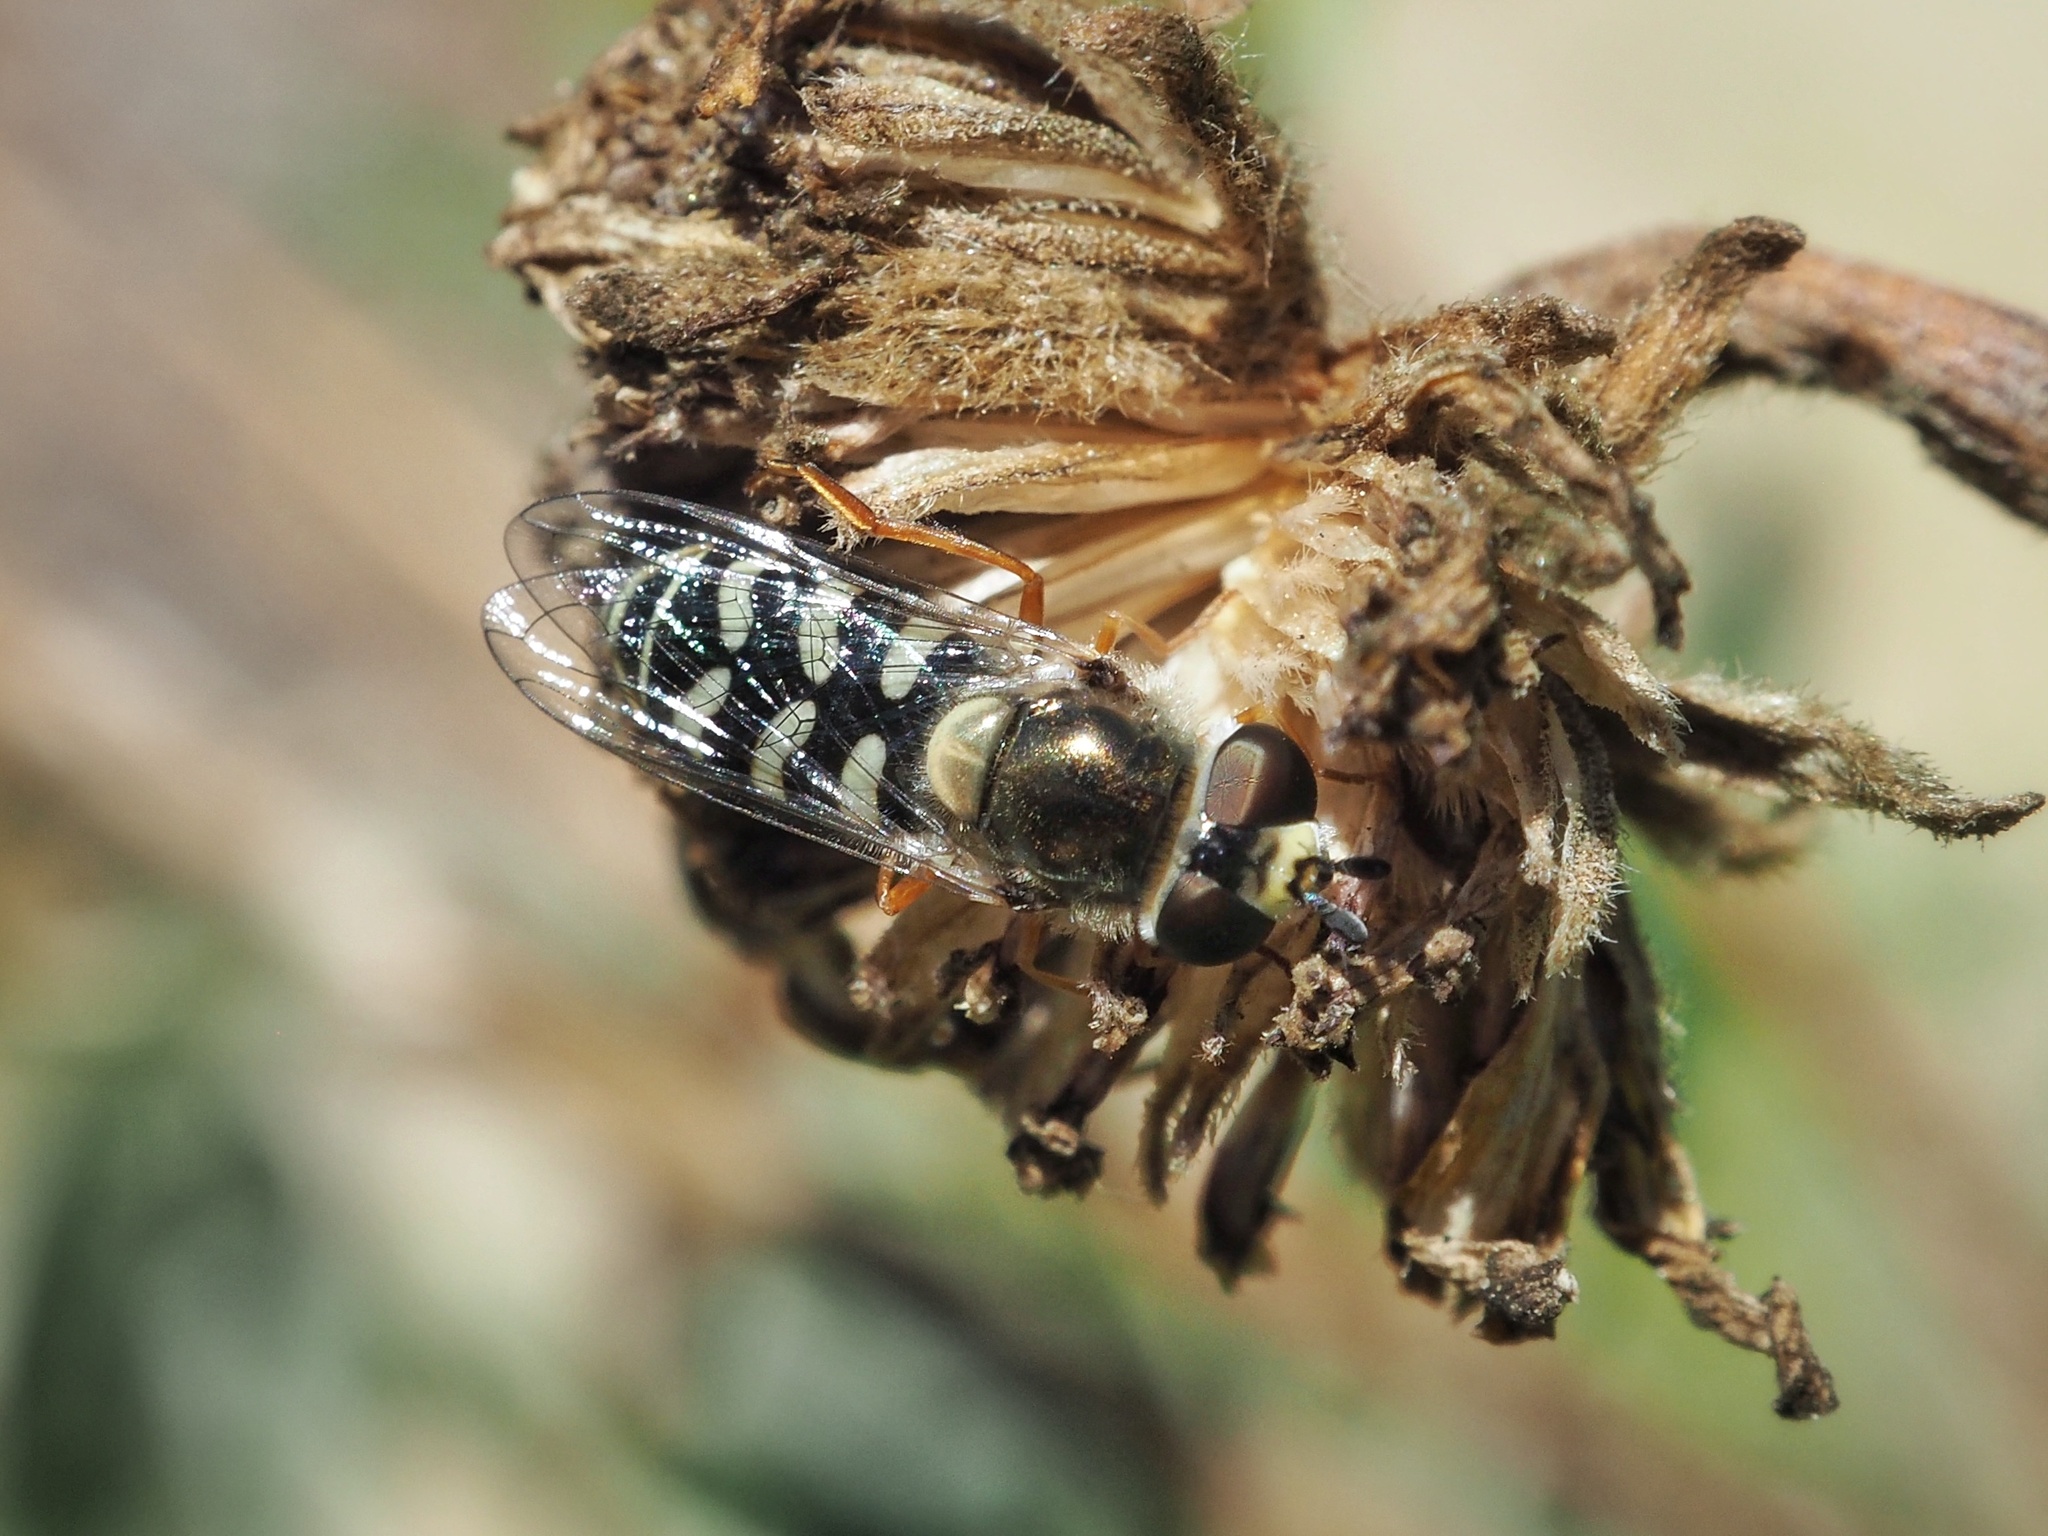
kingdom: Animalia
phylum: Arthropoda
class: Insecta
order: Diptera
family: Syrphidae
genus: Eupeodes
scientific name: Eupeodes volucris
